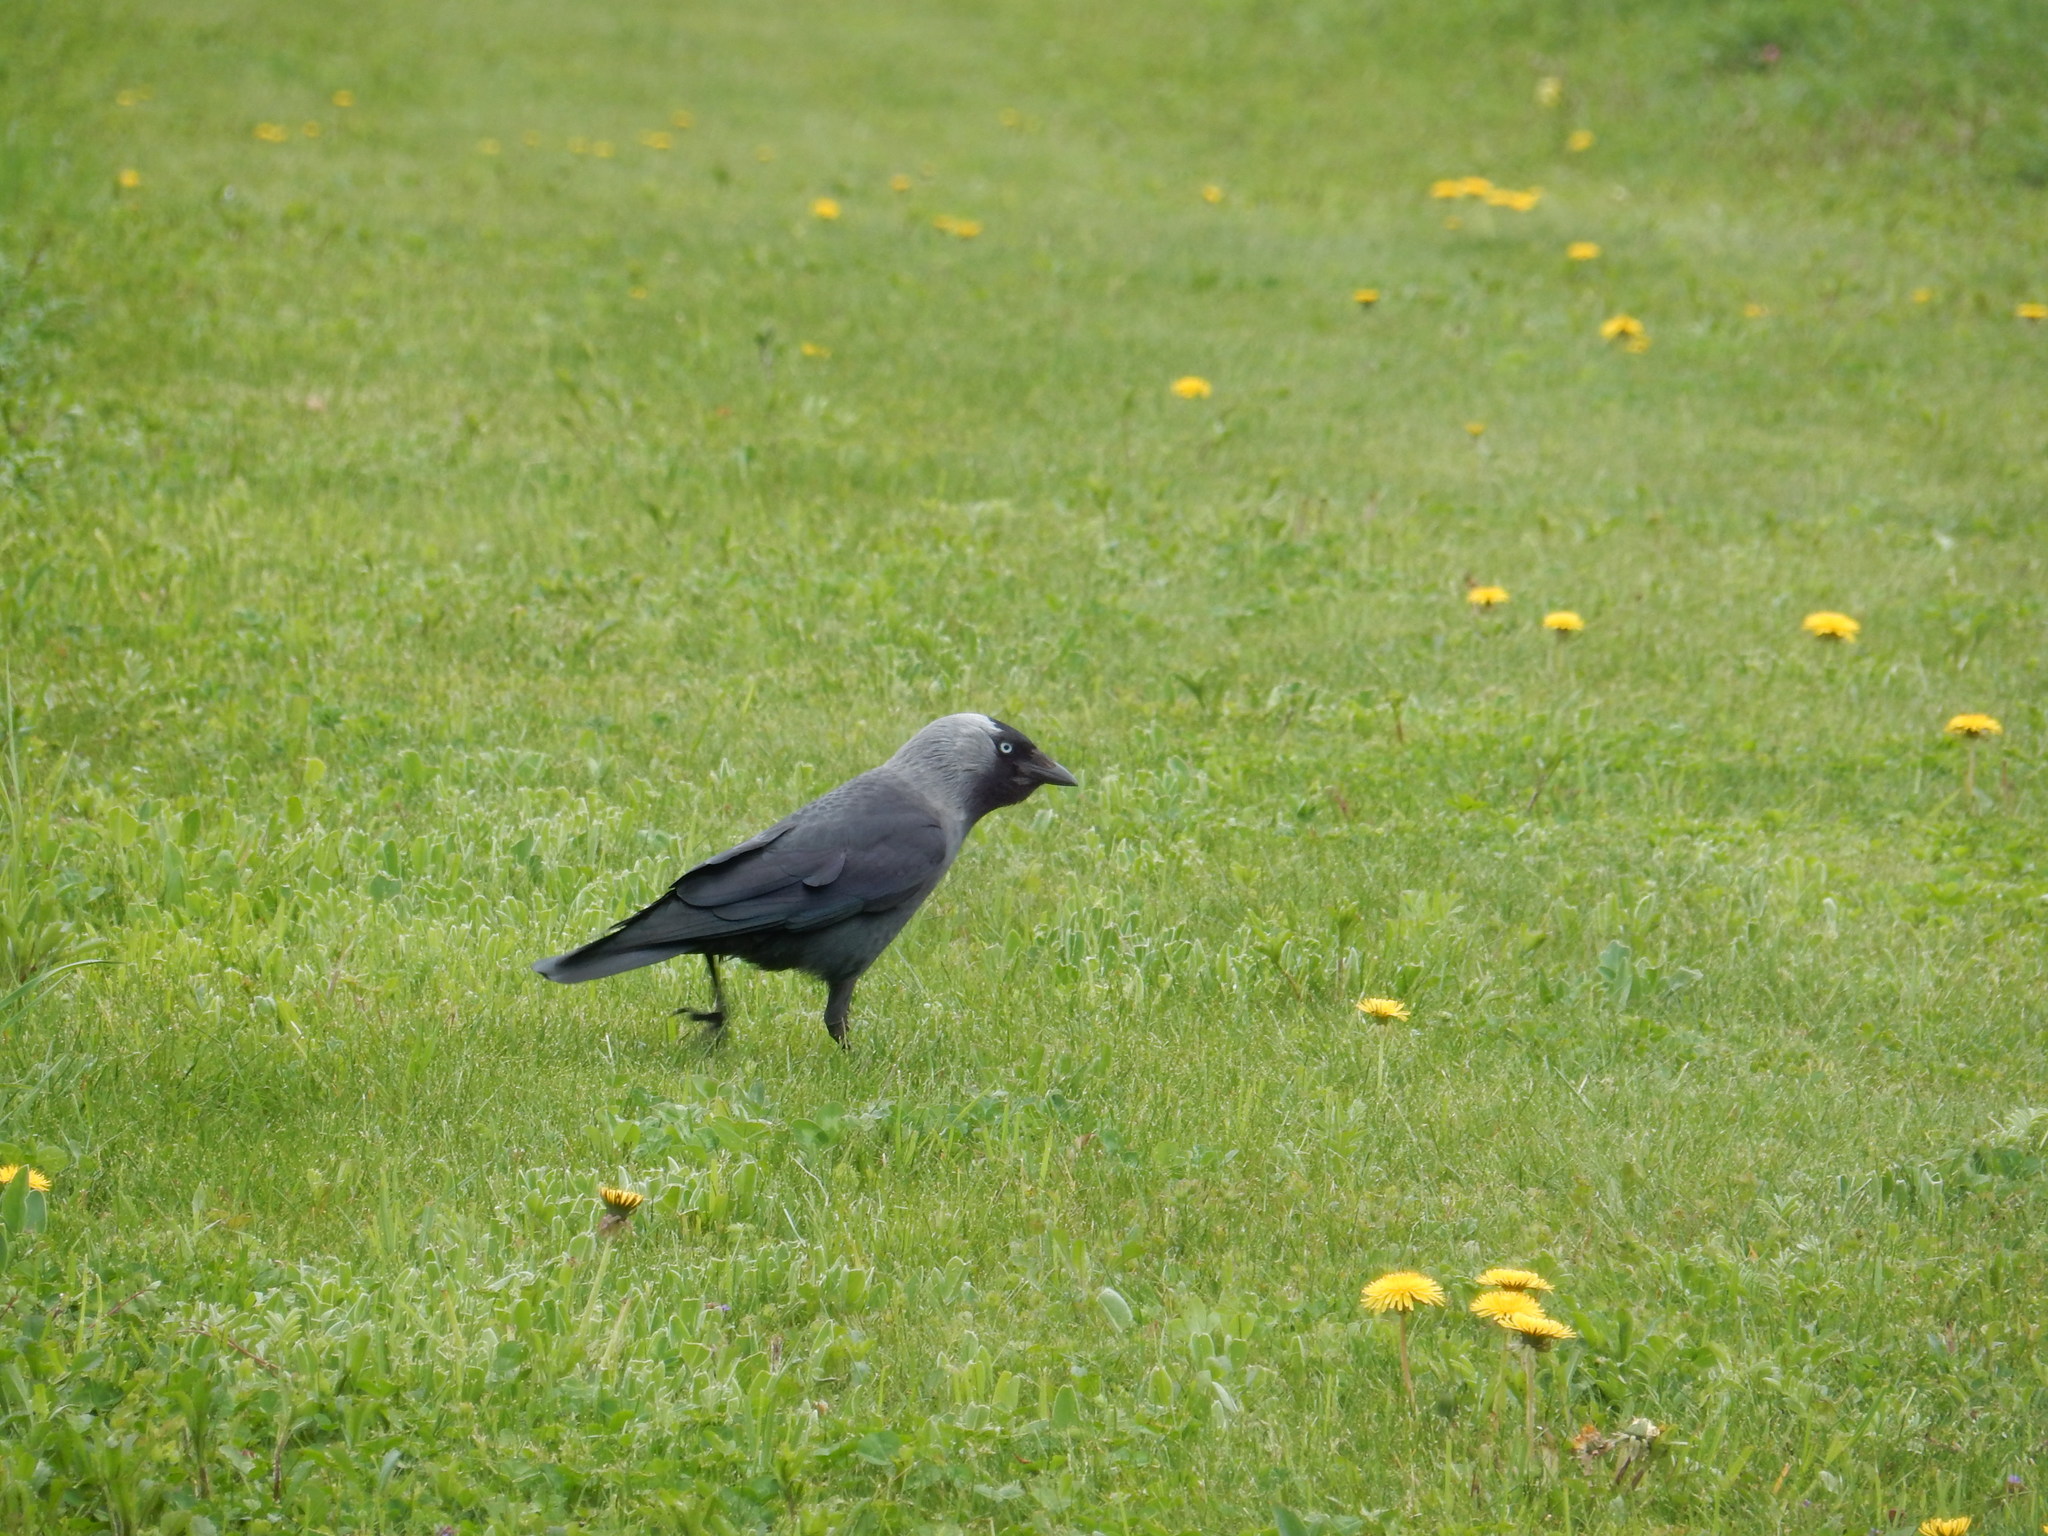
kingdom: Animalia
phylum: Chordata
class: Aves
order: Passeriformes
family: Corvidae
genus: Coloeus
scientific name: Coloeus monedula
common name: Western jackdaw
